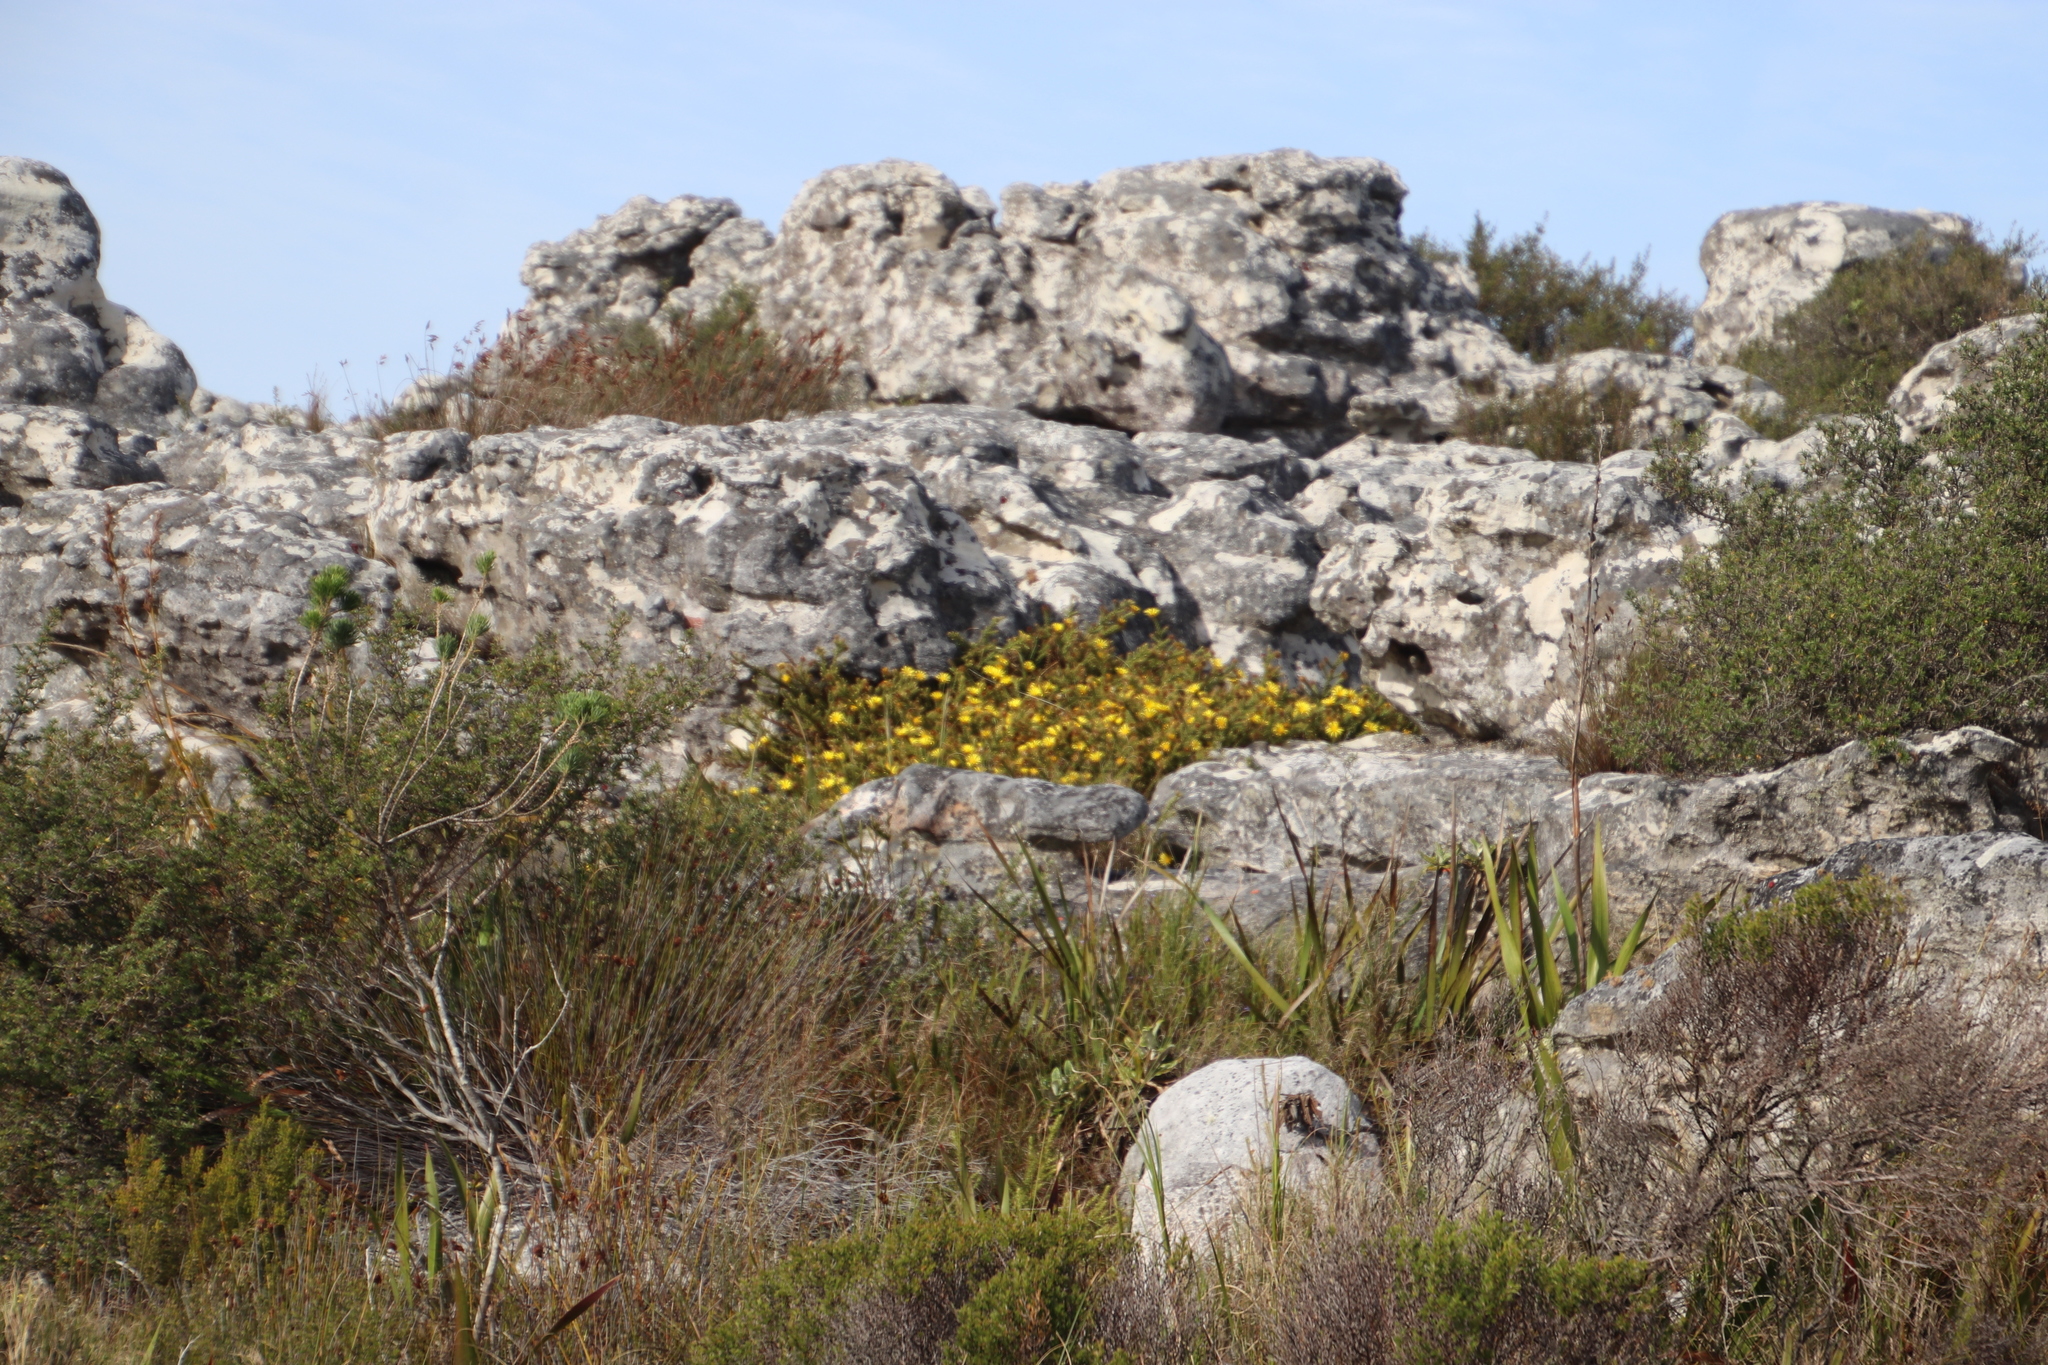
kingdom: Plantae
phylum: Tracheophyta
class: Magnoliopsida
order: Asterales
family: Asteraceae
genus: Cullumia
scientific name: Cullumia reticulata
